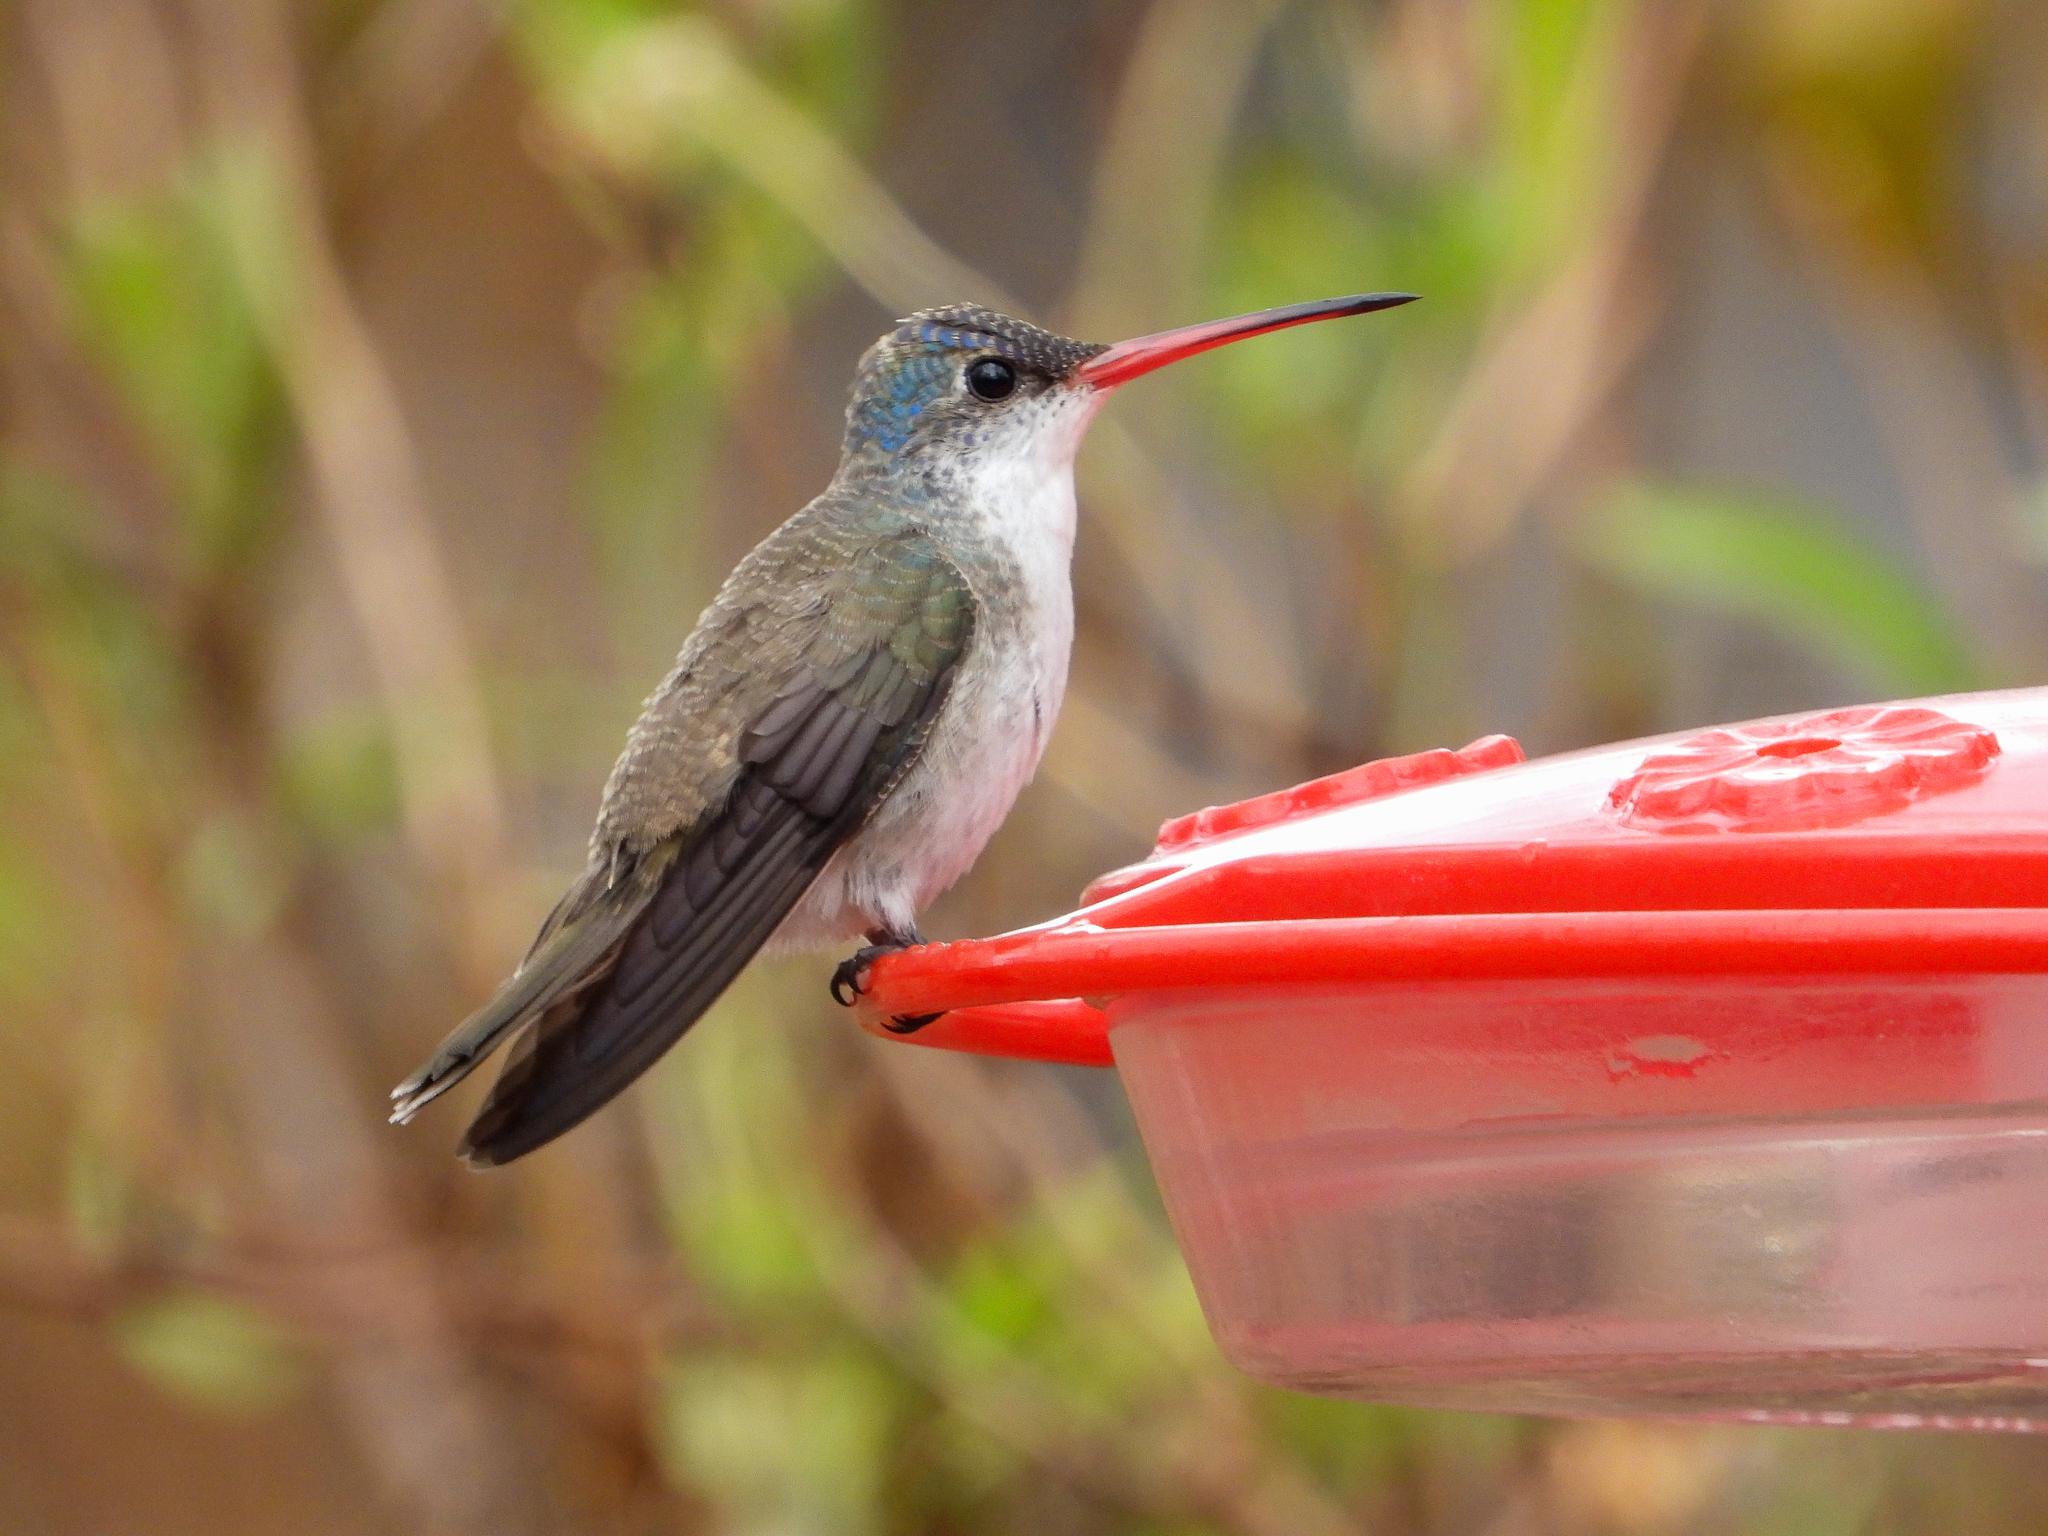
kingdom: Animalia
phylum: Chordata
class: Aves
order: Apodiformes
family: Trochilidae
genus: Leucolia
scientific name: Leucolia violiceps
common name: Violet-crowned hummingbird
